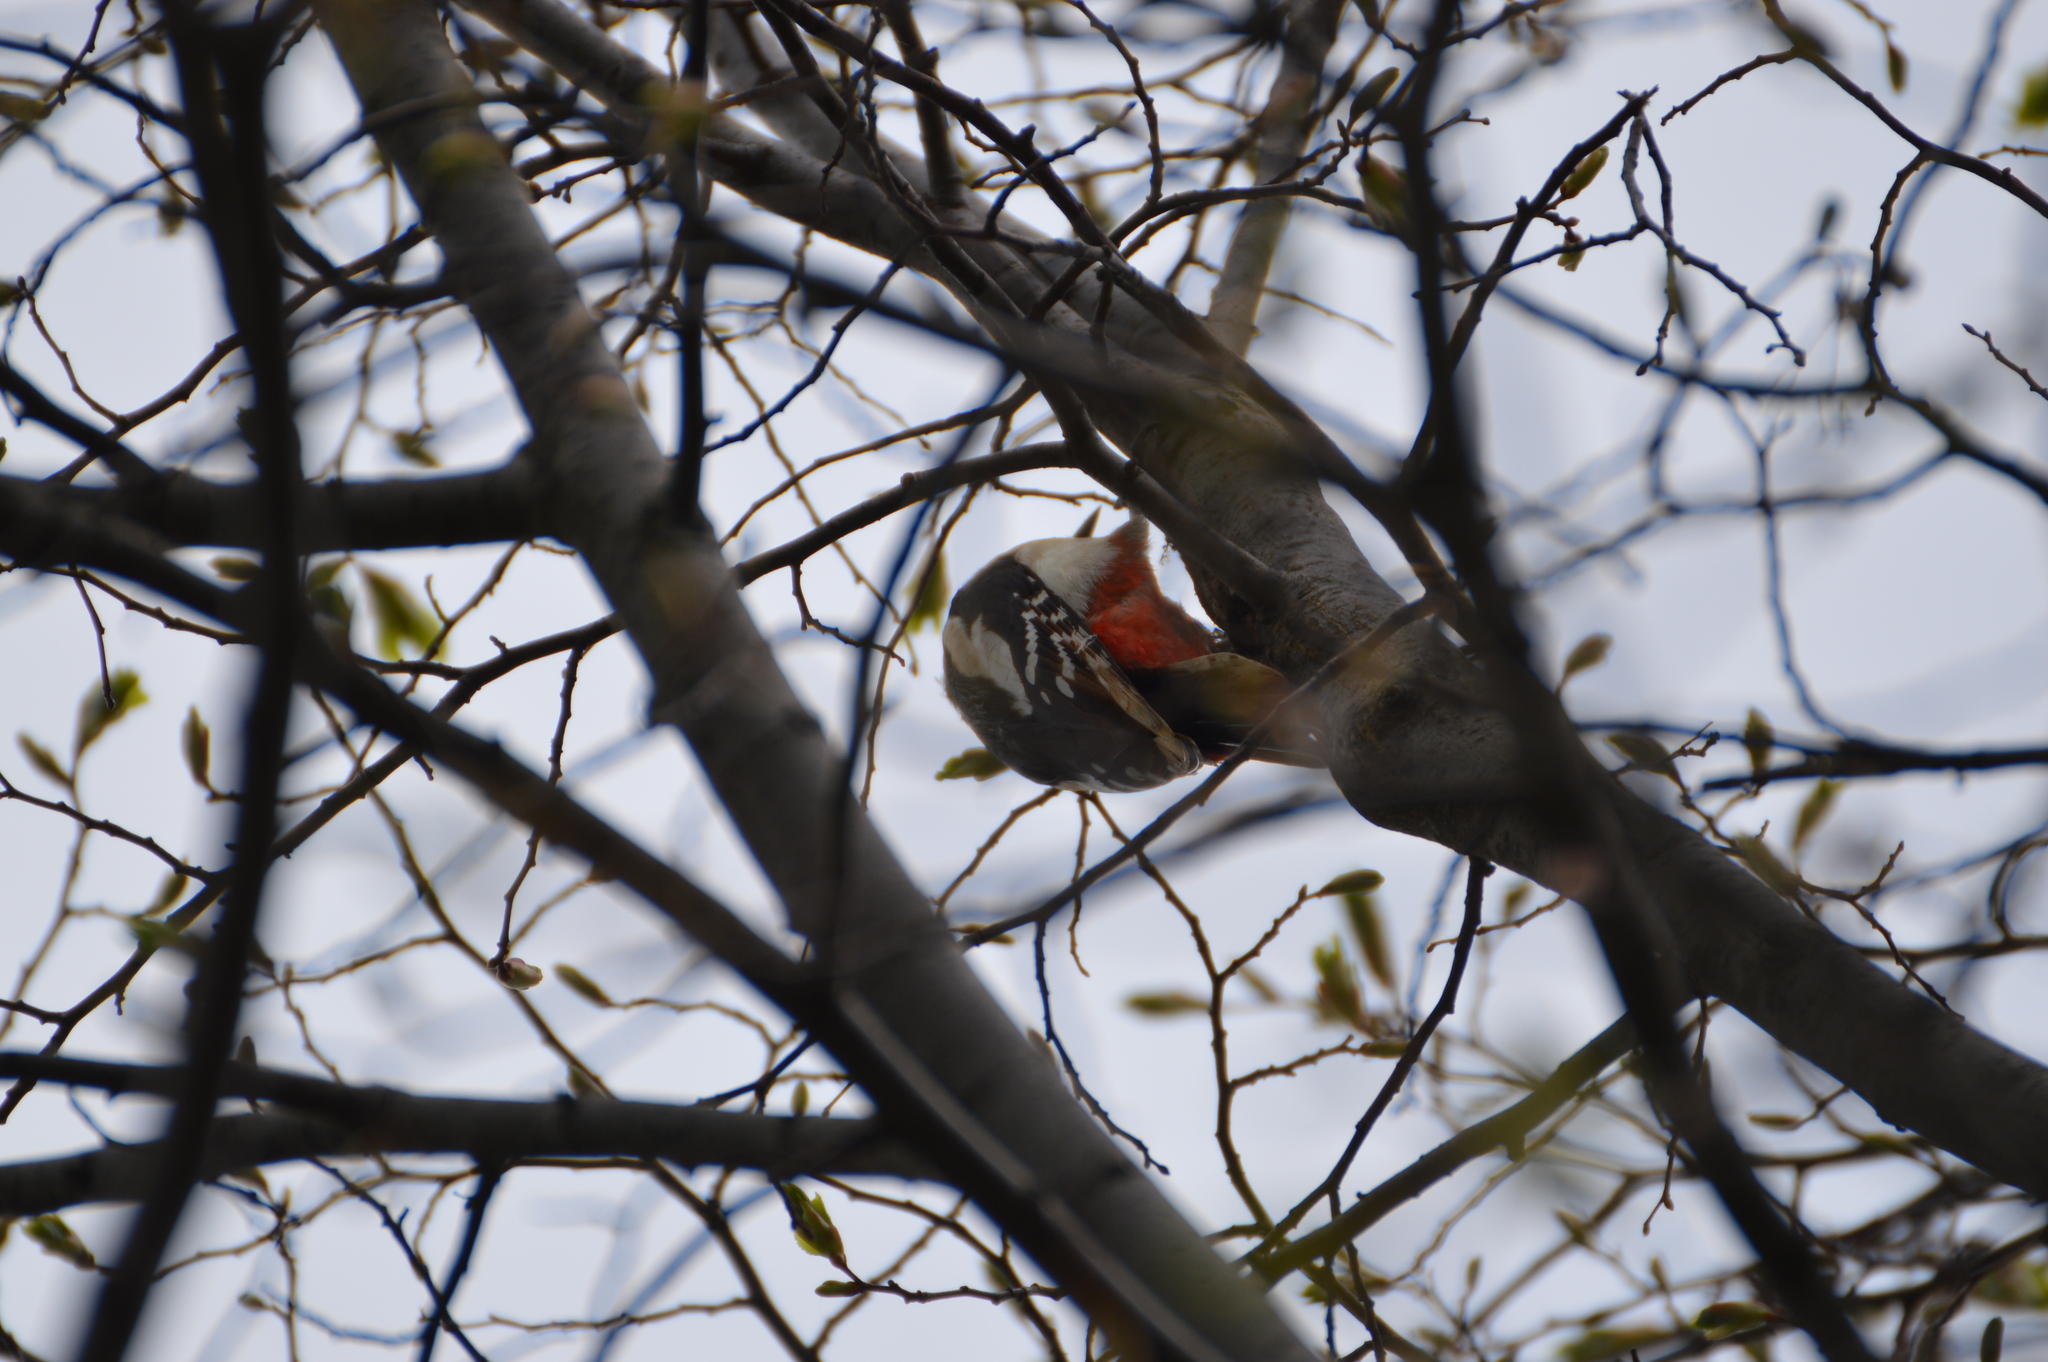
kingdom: Animalia
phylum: Chordata
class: Aves
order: Piciformes
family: Picidae
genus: Dendrocopos
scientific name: Dendrocopos major
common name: Great spotted woodpecker
